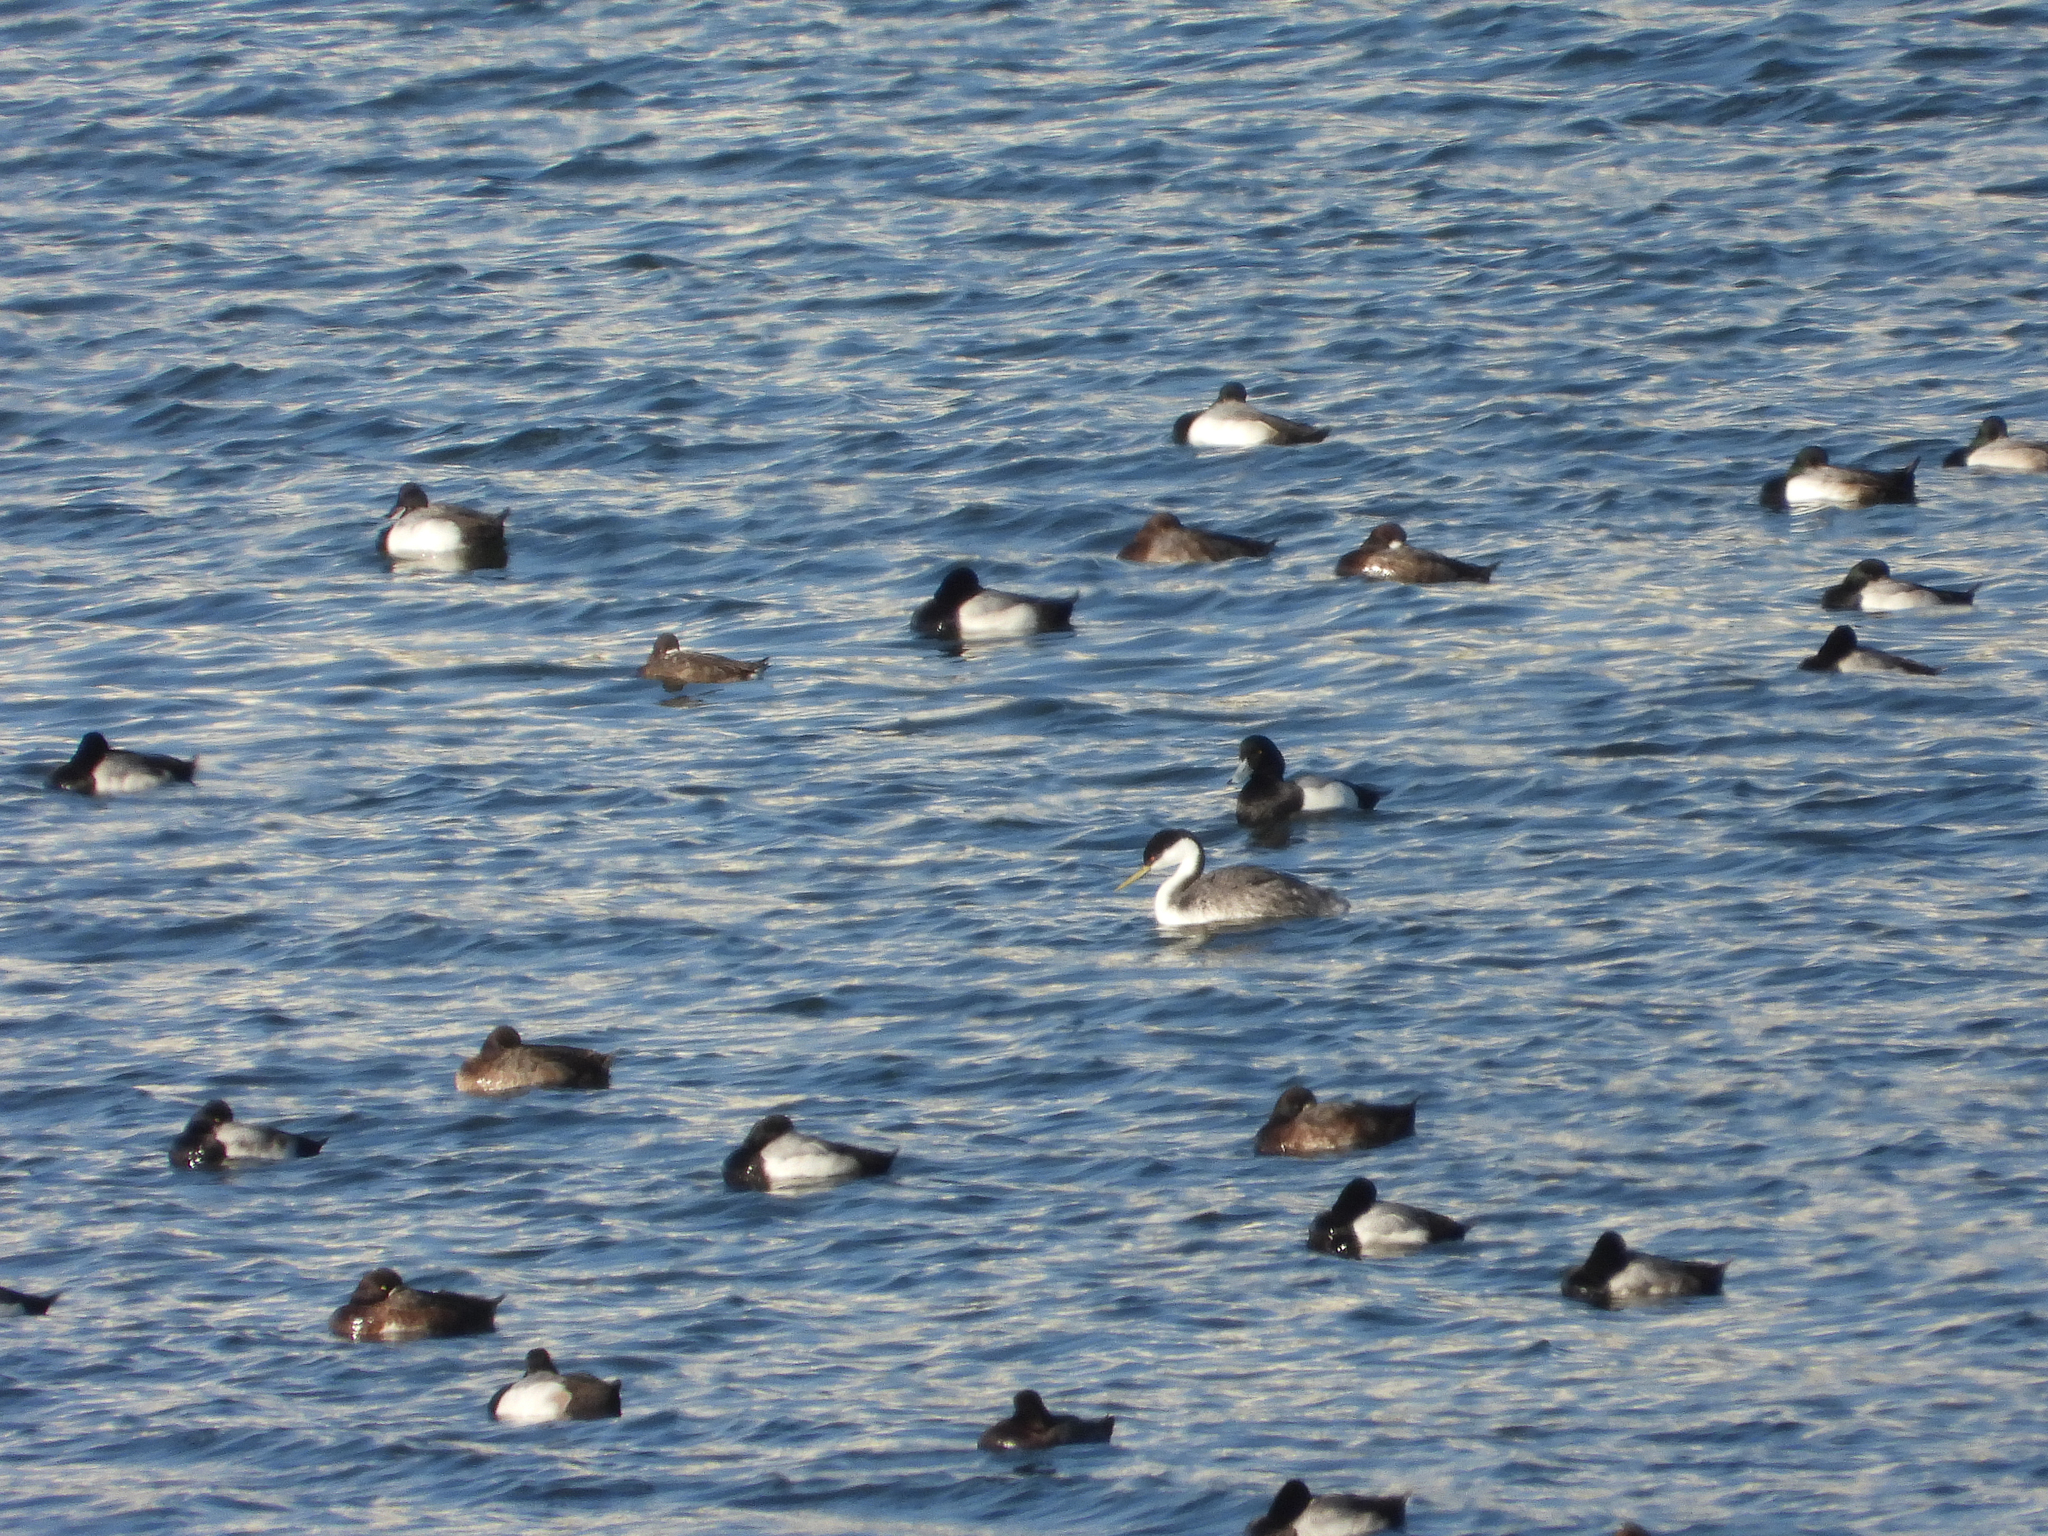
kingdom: Animalia
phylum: Chordata
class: Aves
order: Anseriformes
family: Anatidae
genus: Aythya
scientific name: Aythya marila
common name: Greater scaup
